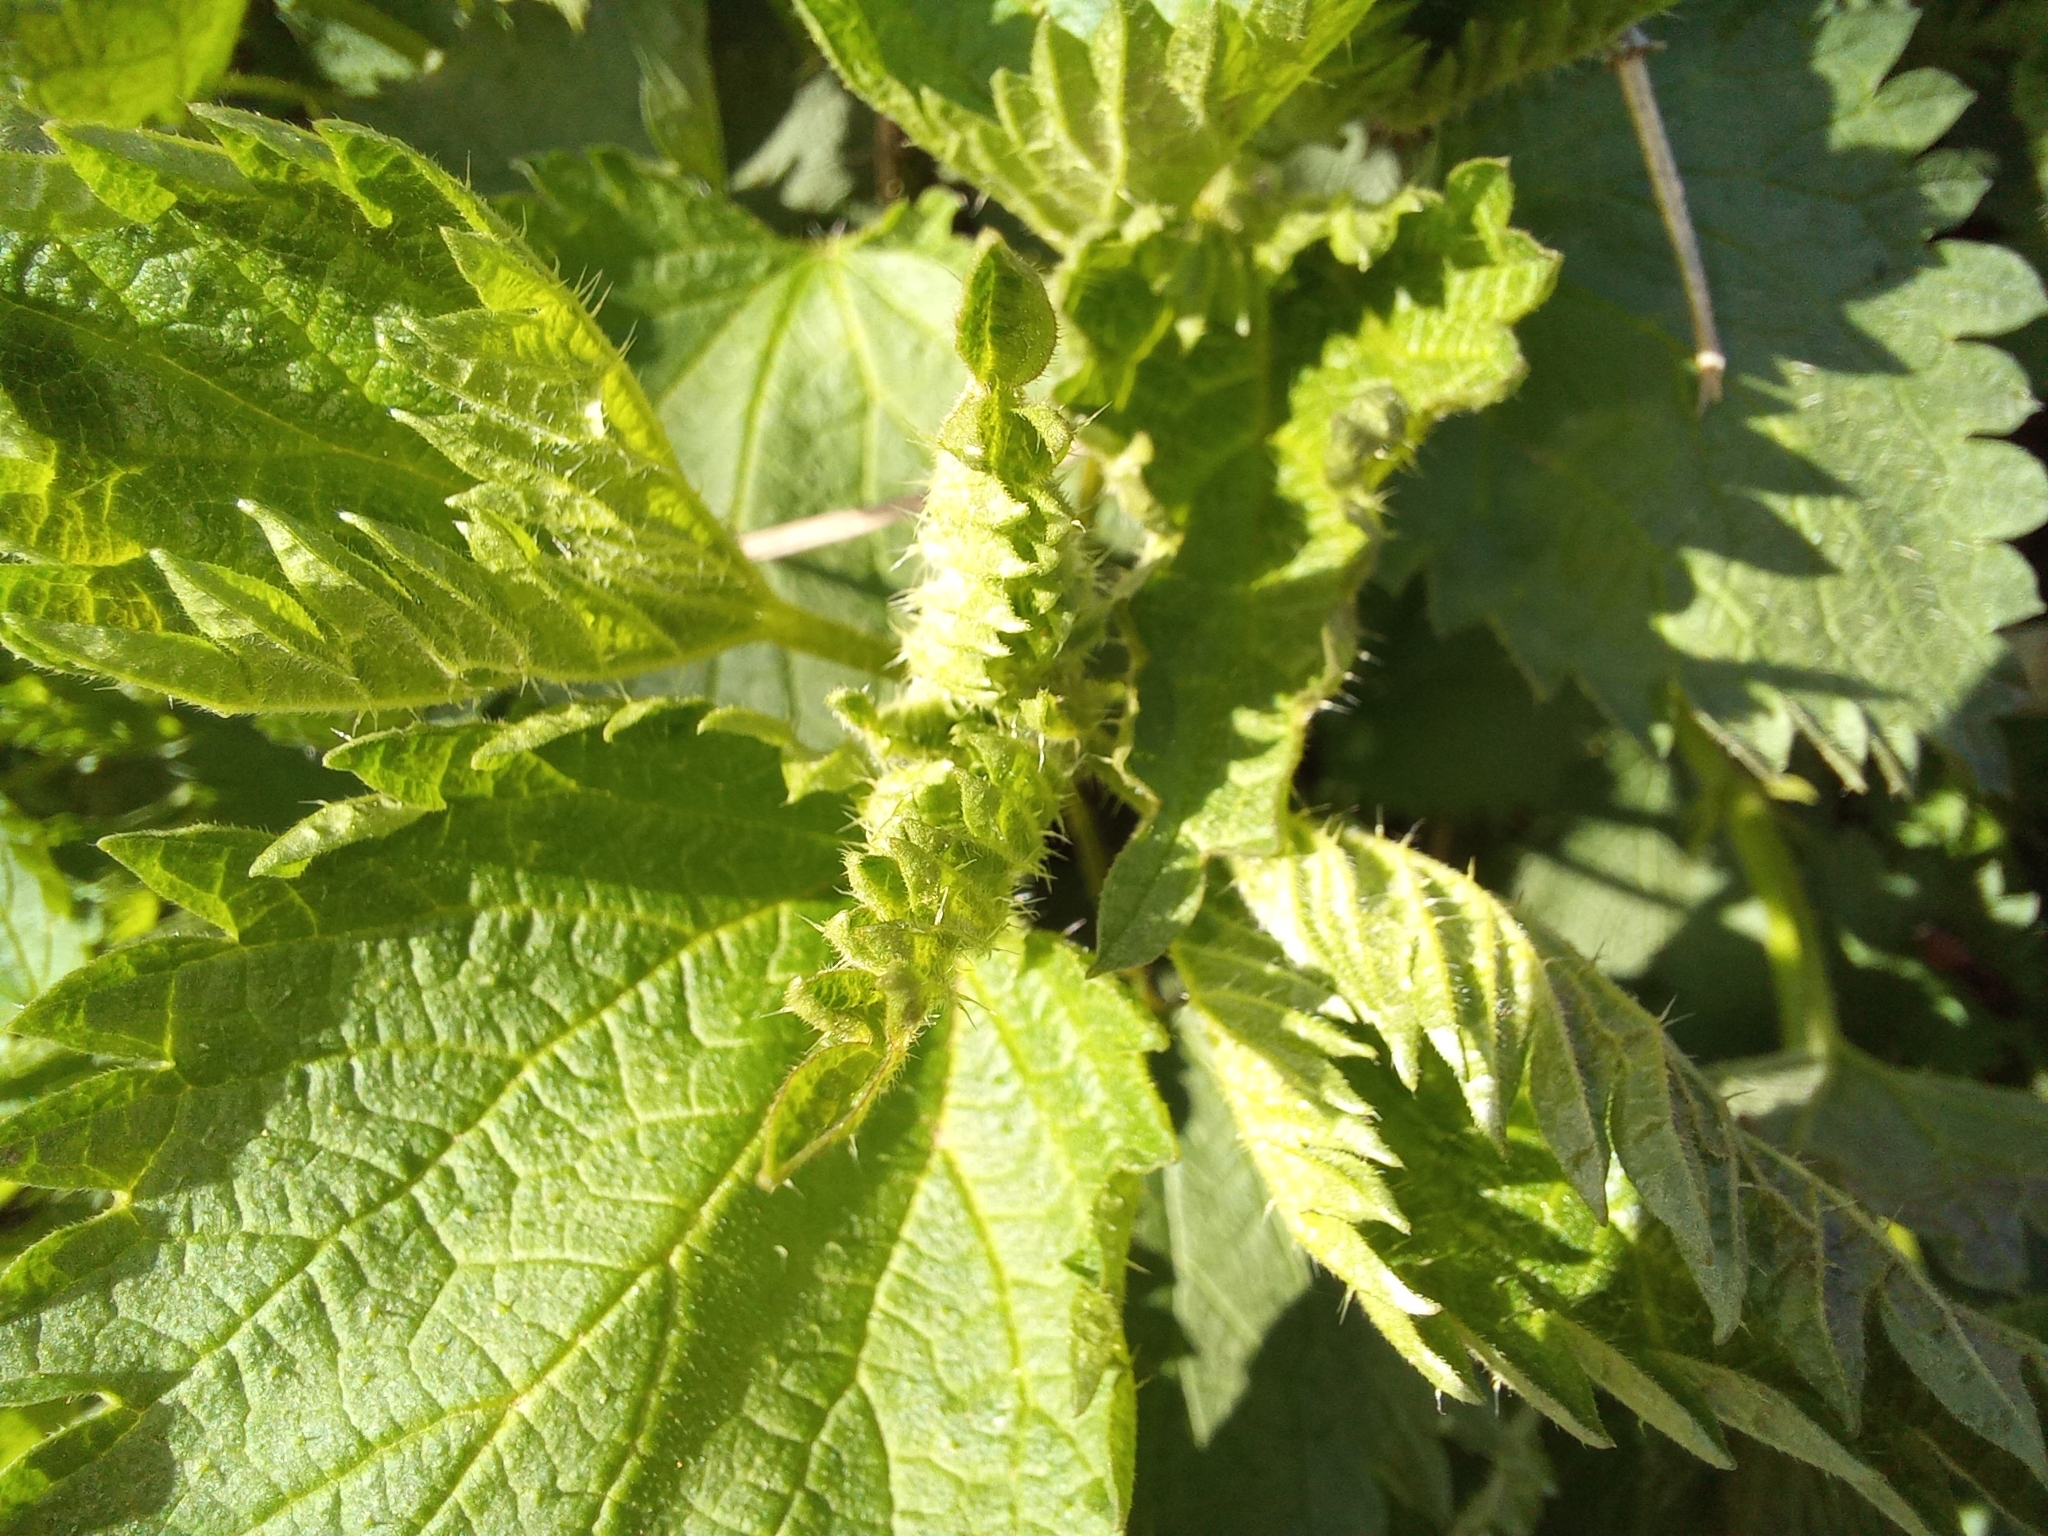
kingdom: Plantae
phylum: Tracheophyta
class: Magnoliopsida
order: Rosales
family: Urticaceae
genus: Urtica
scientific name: Urtica dioica
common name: Common nettle
